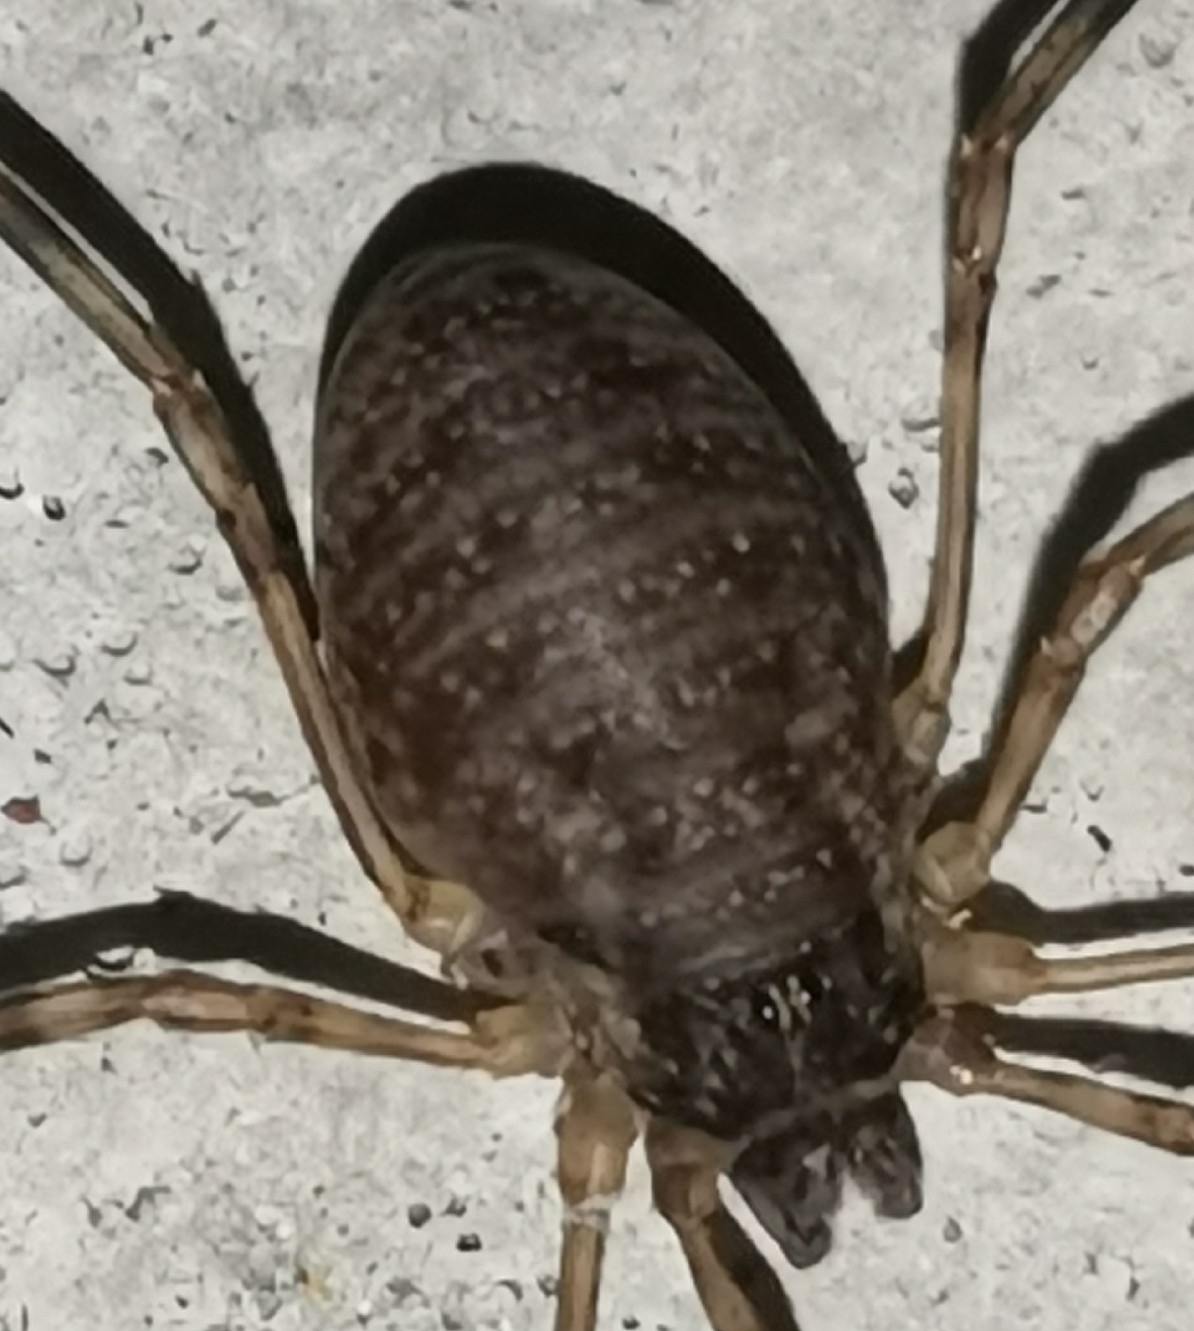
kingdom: Animalia
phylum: Arthropoda
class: Arachnida
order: Opiliones
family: Phalangiidae
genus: Oligolophus
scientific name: Oligolophus tridens
